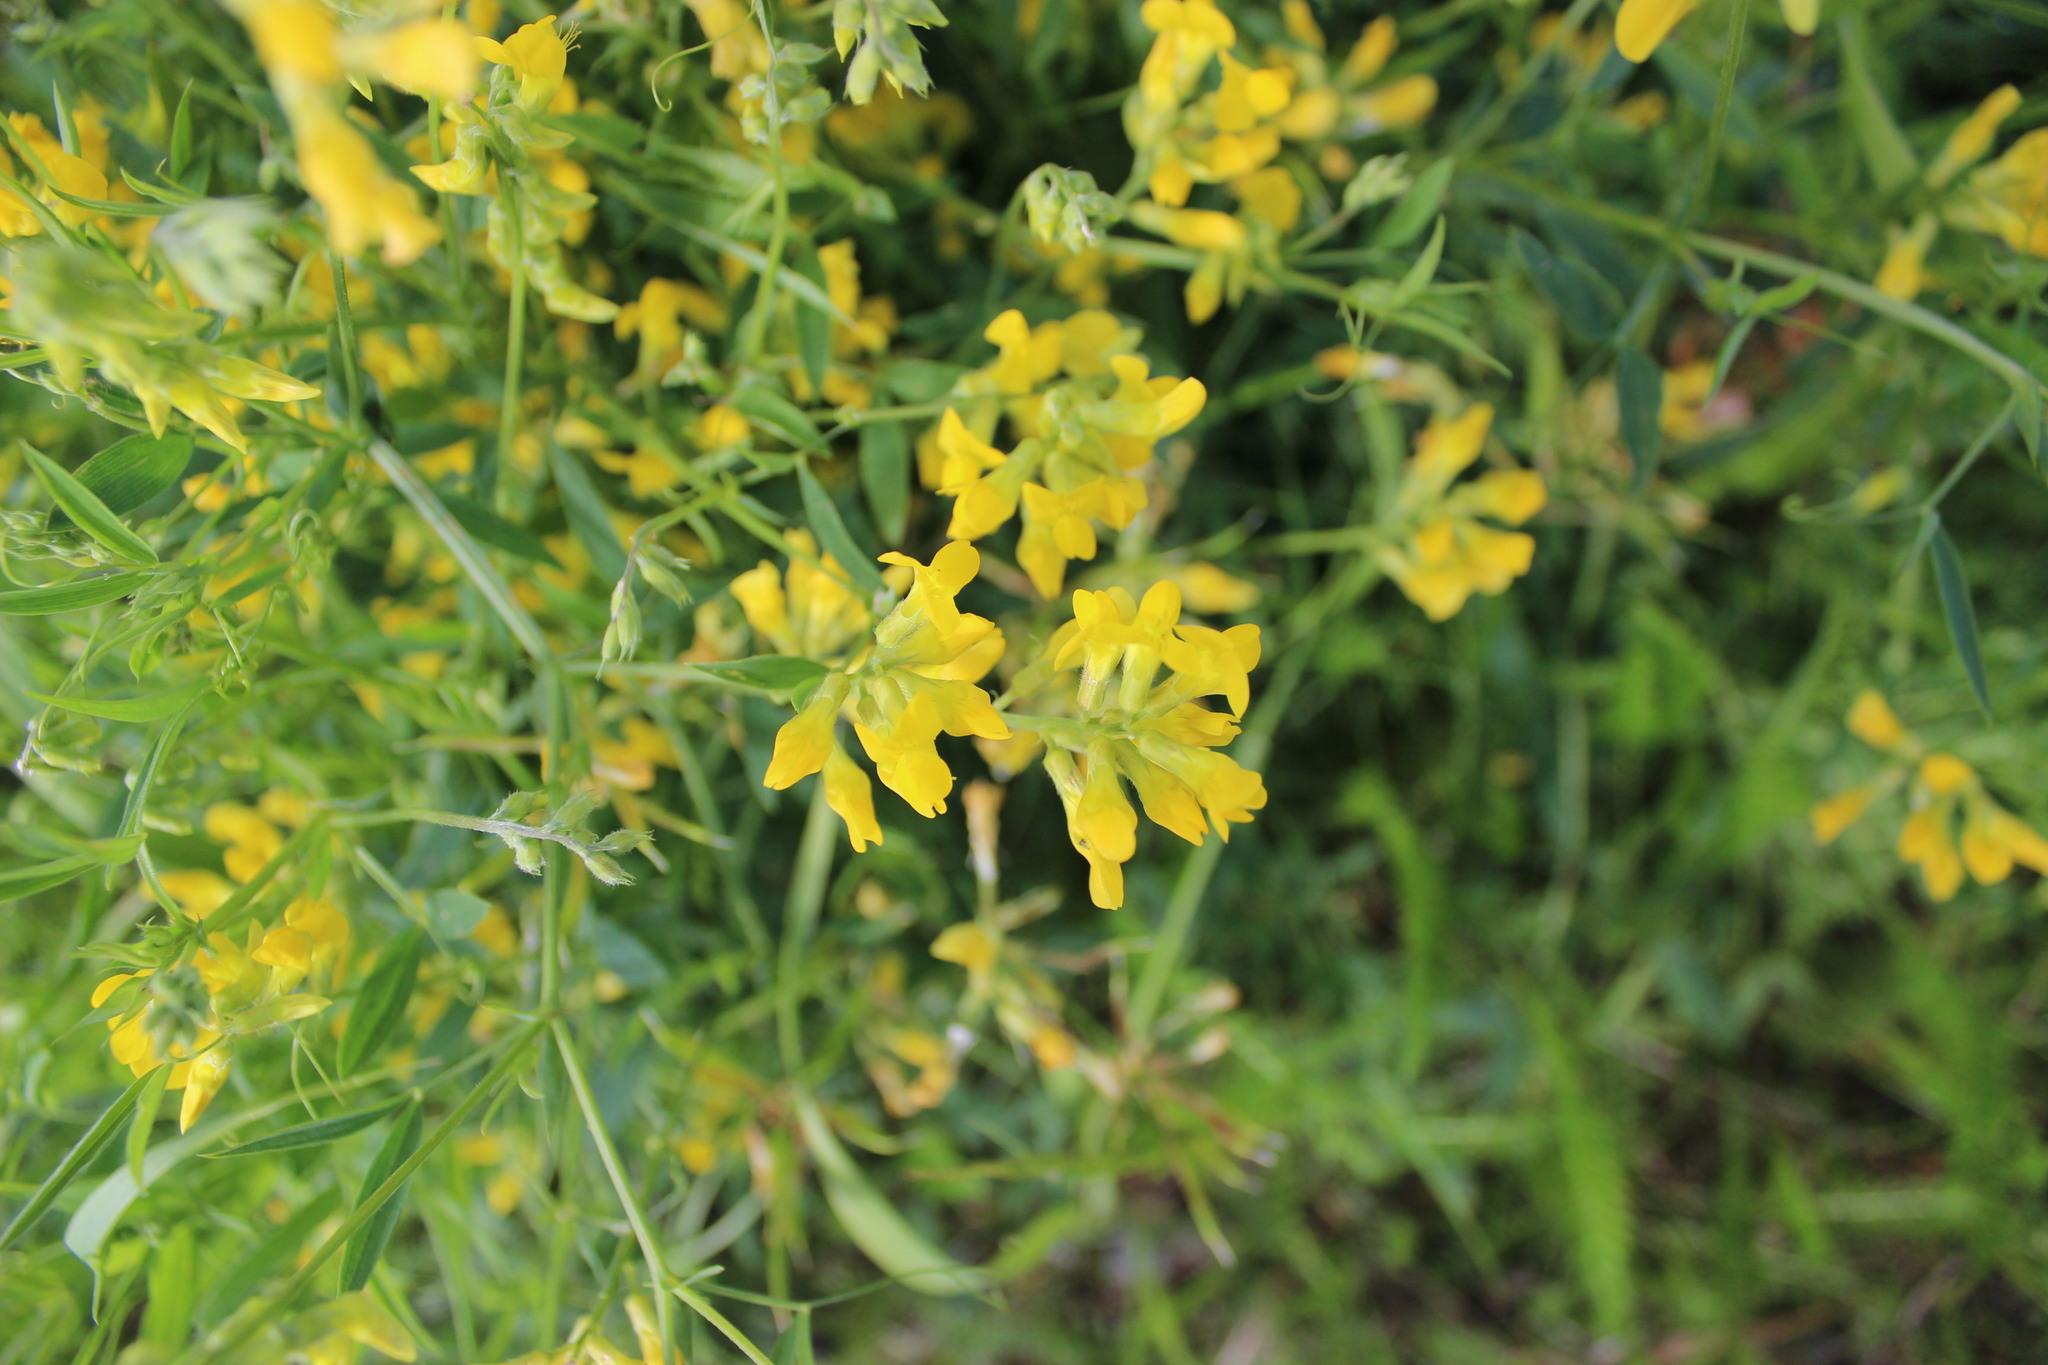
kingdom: Plantae
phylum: Tracheophyta
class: Magnoliopsida
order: Fabales
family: Fabaceae
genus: Lathyrus
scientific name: Lathyrus pratensis
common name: Meadow vetchling
